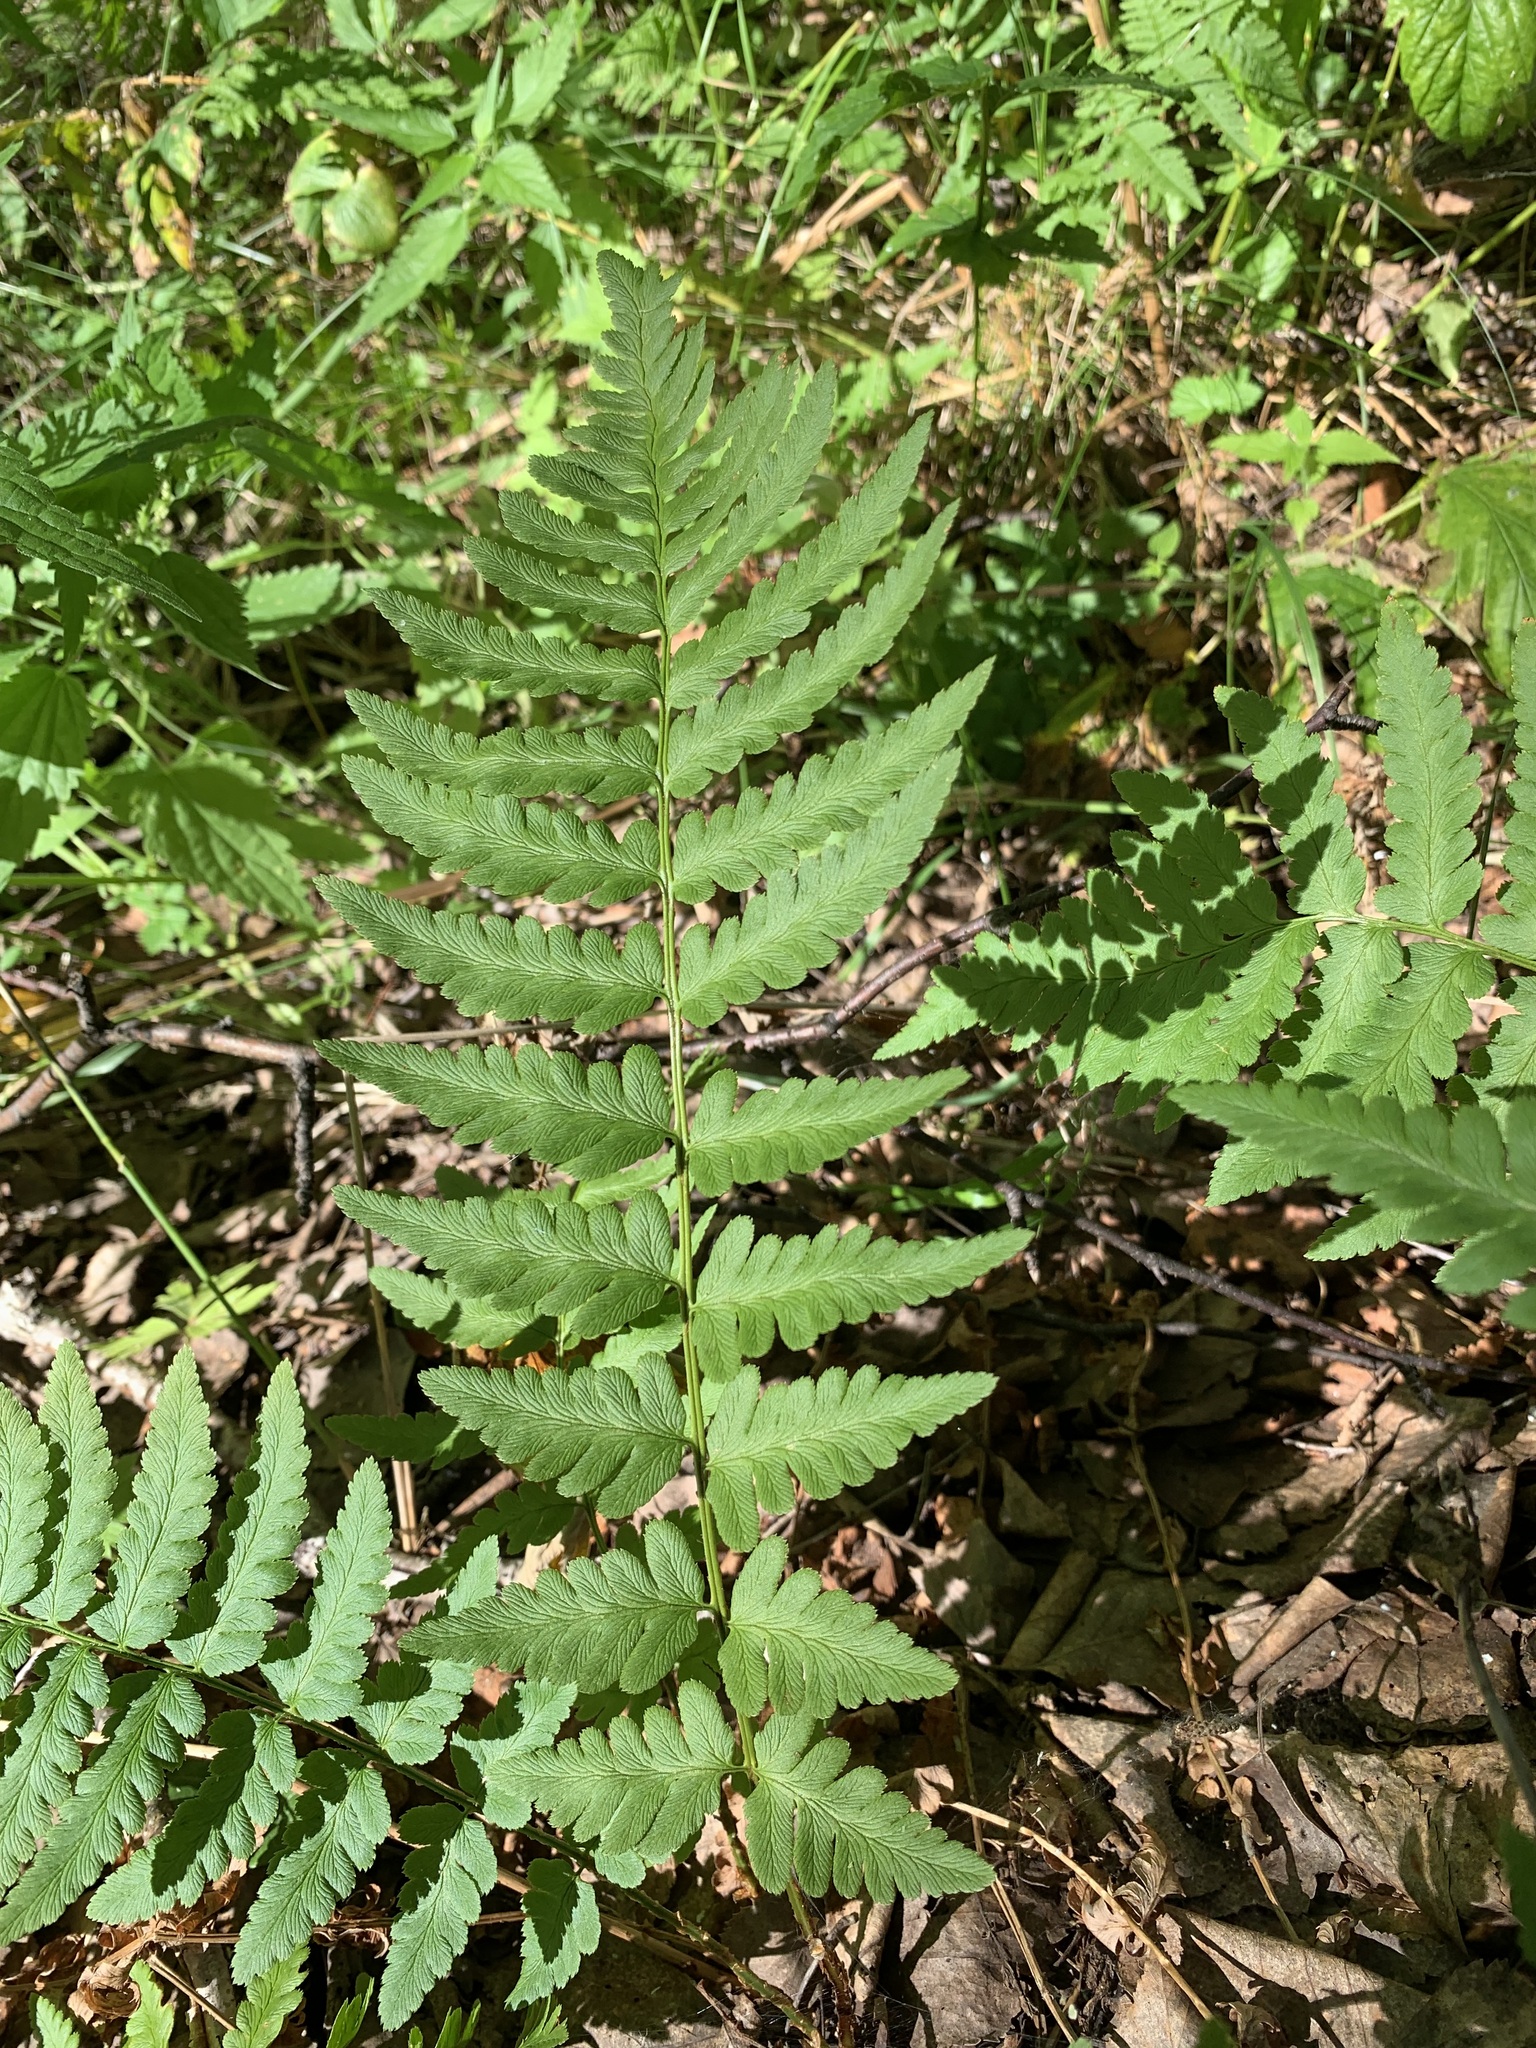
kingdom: Plantae
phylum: Tracheophyta
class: Polypodiopsida
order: Polypodiales
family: Dryopteridaceae
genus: Dryopteris
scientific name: Dryopteris cristata
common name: Crested wood fern
